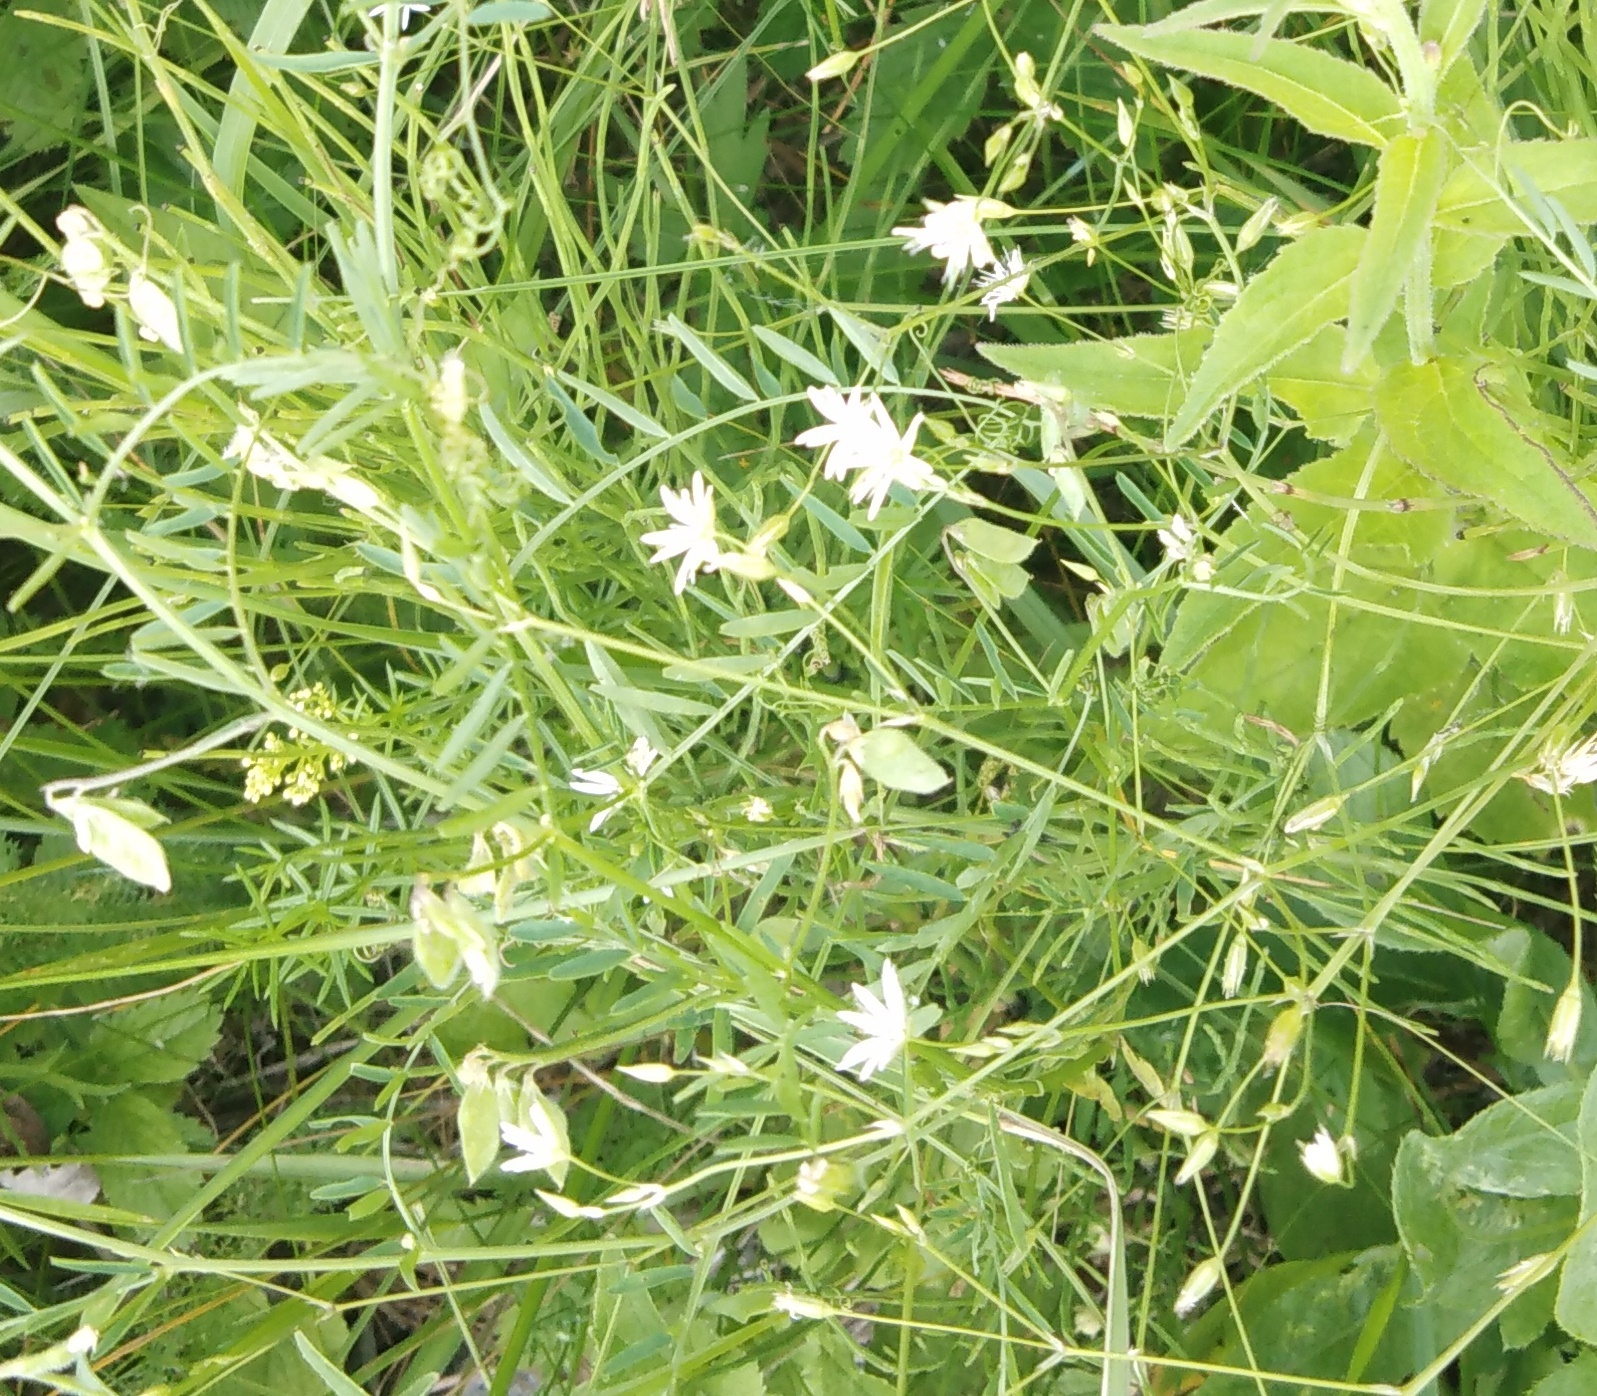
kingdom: Plantae
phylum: Tracheophyta
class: Magnoliopsida
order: Caryophyllales
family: Caryophyllaceae
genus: Stellaria
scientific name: Stellaria graminea
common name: Grass-like starwort
